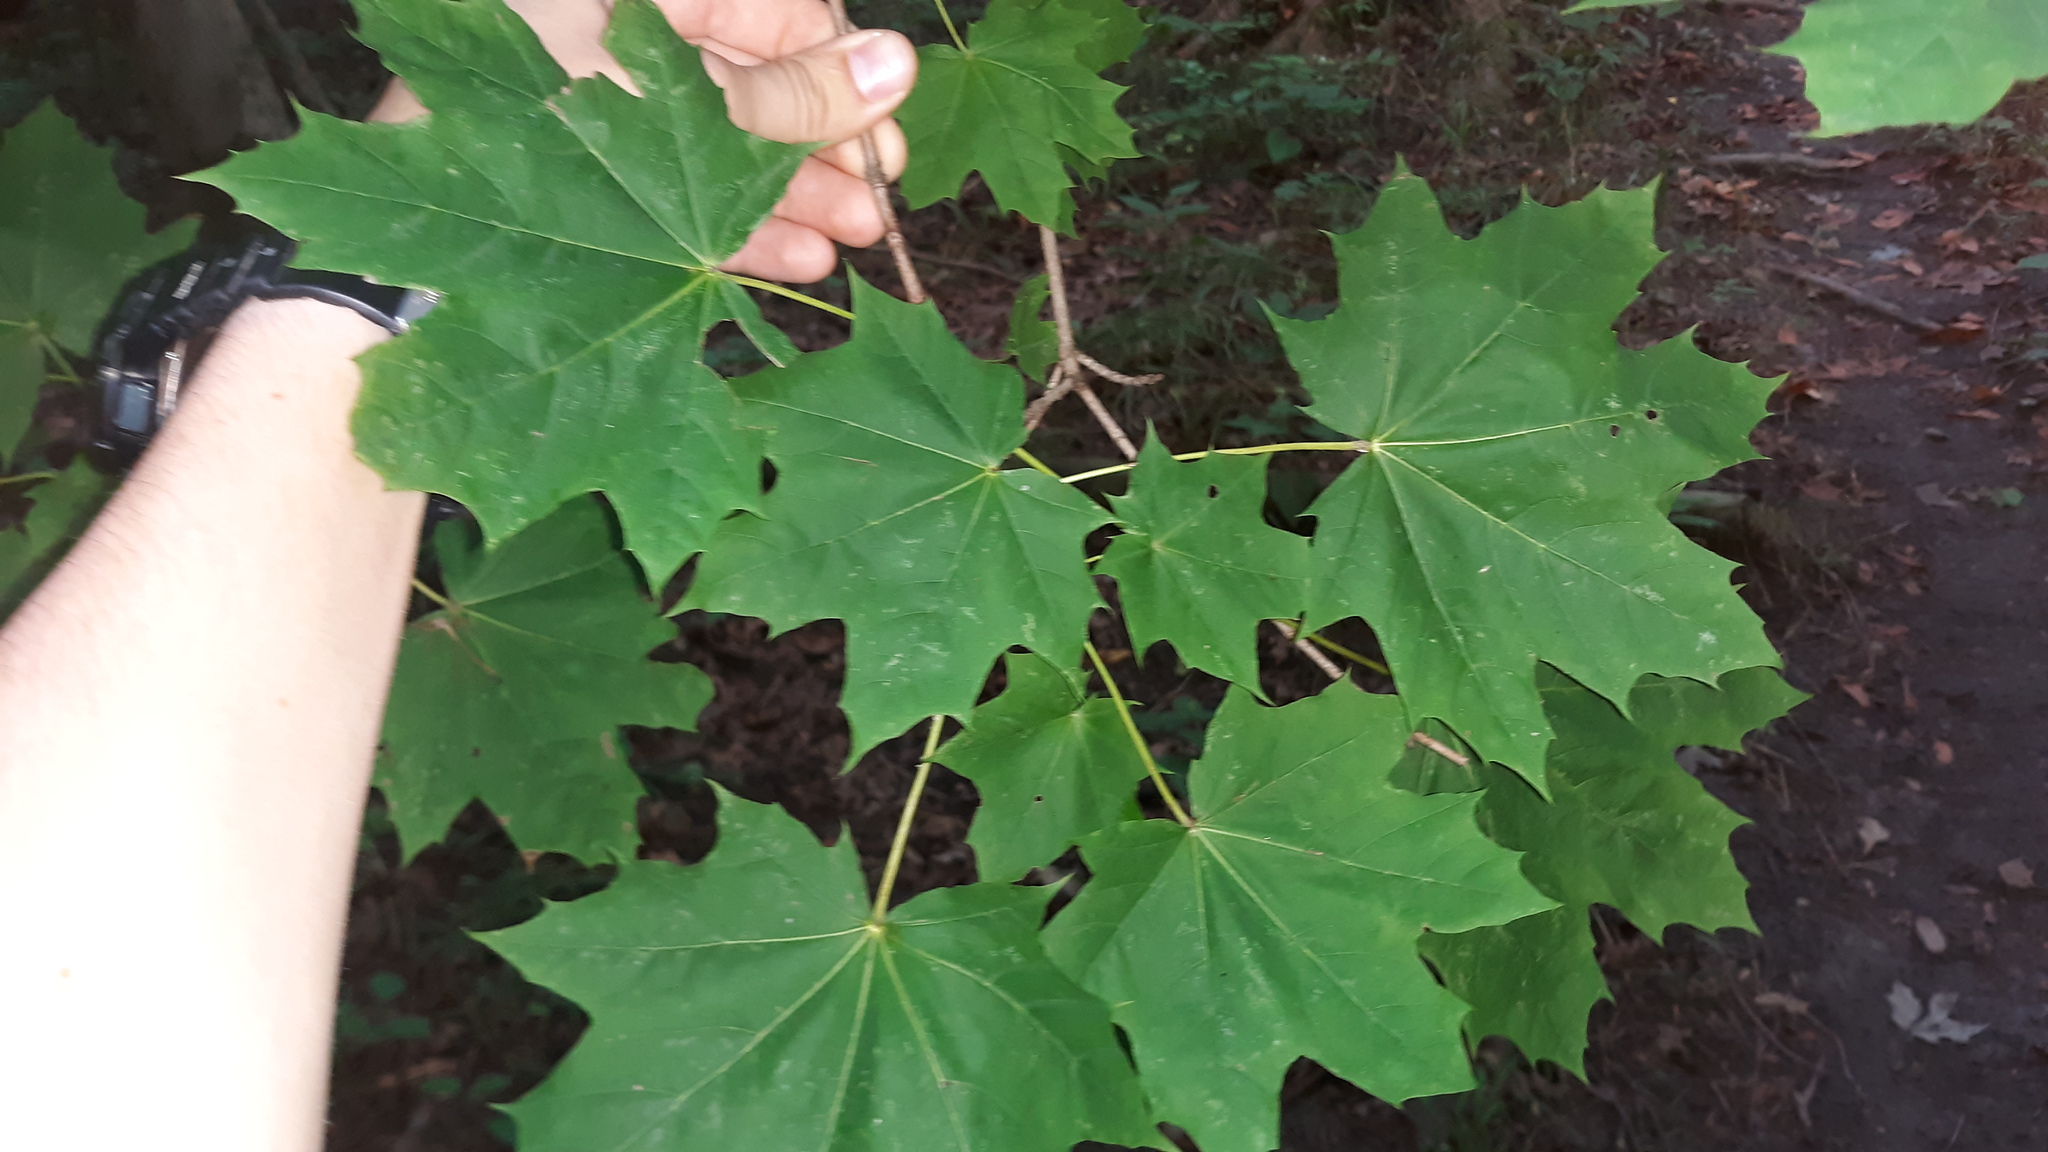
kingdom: Plantae
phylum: Tracheophyta
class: Magnoliopsida
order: Sapindales
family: Sapindaceae
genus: Acer
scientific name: Acer platanoides
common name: Norway maple
